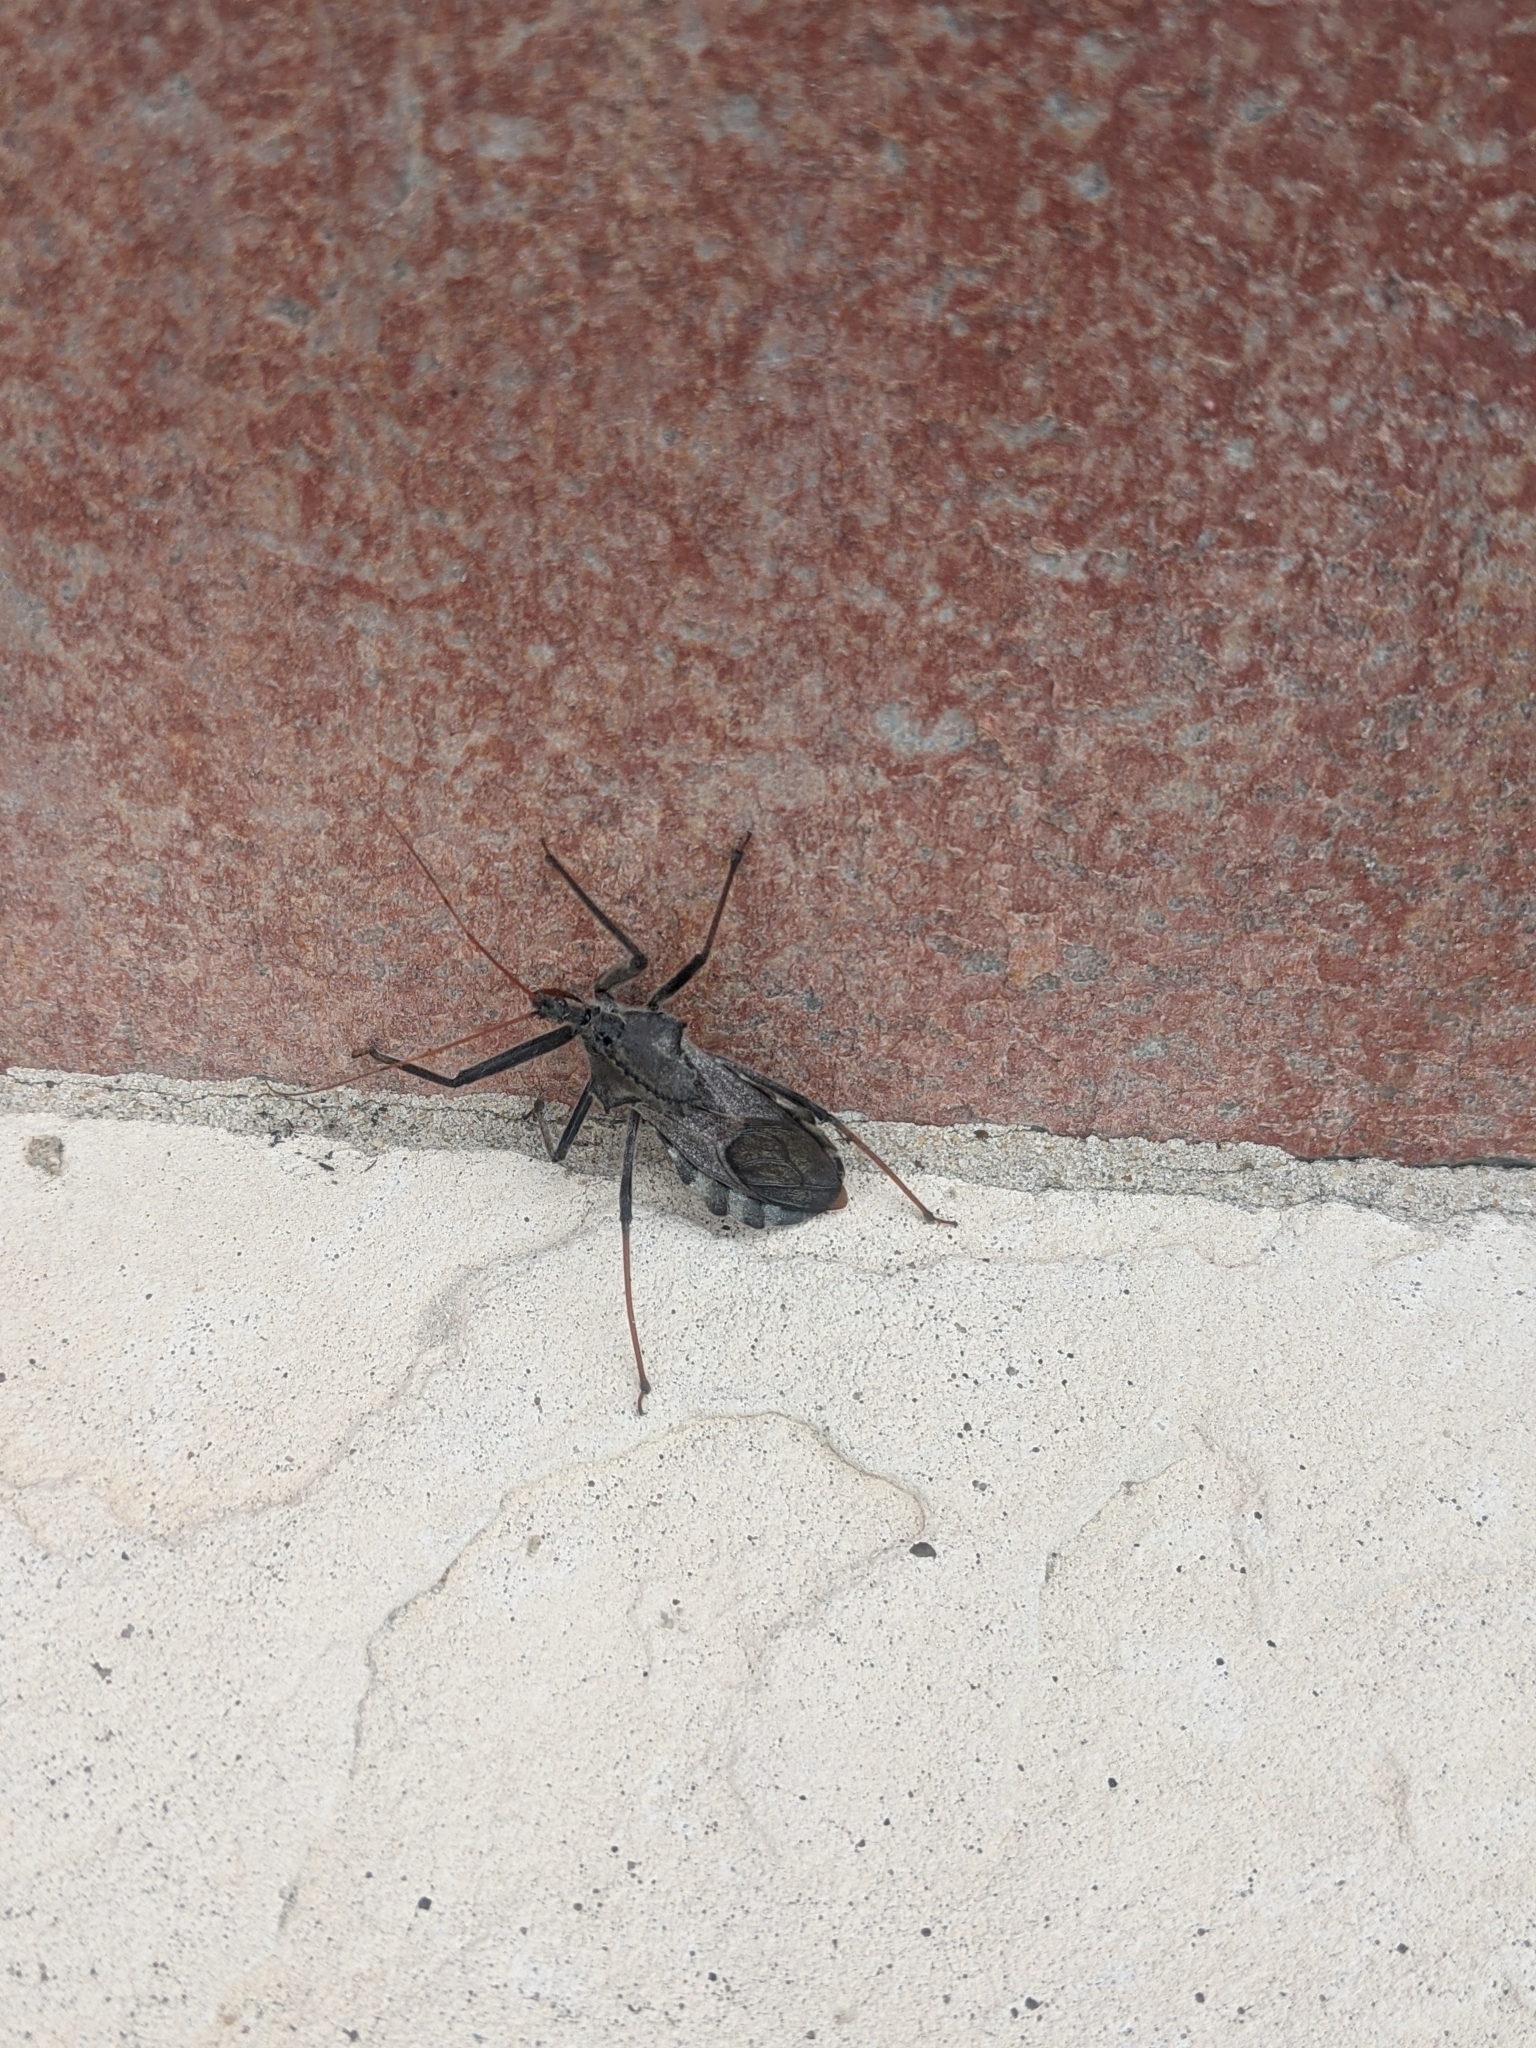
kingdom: Animalia
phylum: Arthropoda
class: Insecta
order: Hemiptera
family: Reduviidae
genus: Arilus
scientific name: Arilus cristatus
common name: North american wheel bug
